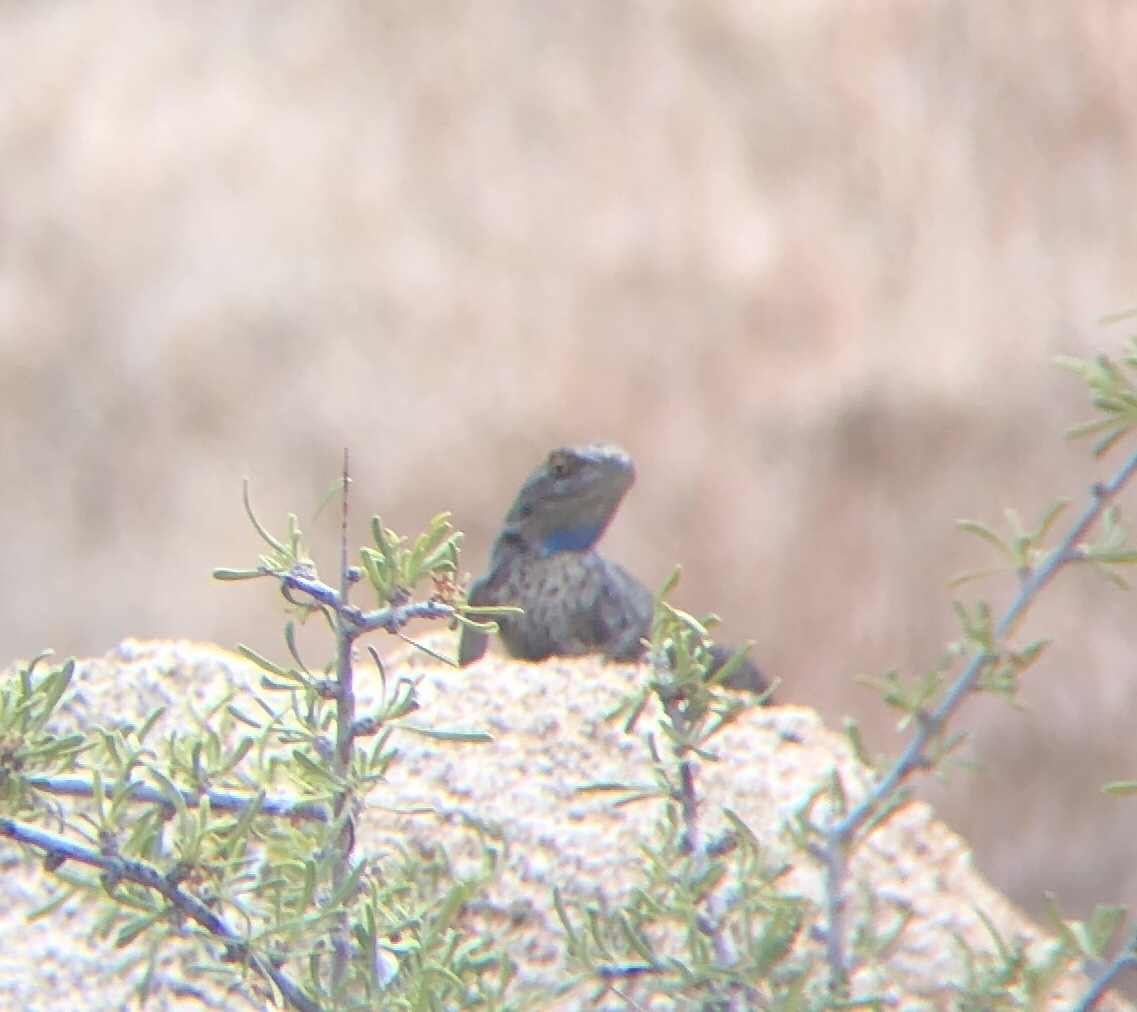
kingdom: Animalia
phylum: Chordata
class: Squamata
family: Phrynosomatidae
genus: Sceloporus
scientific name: Sceloporus occidentalis
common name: Western fence lizard
